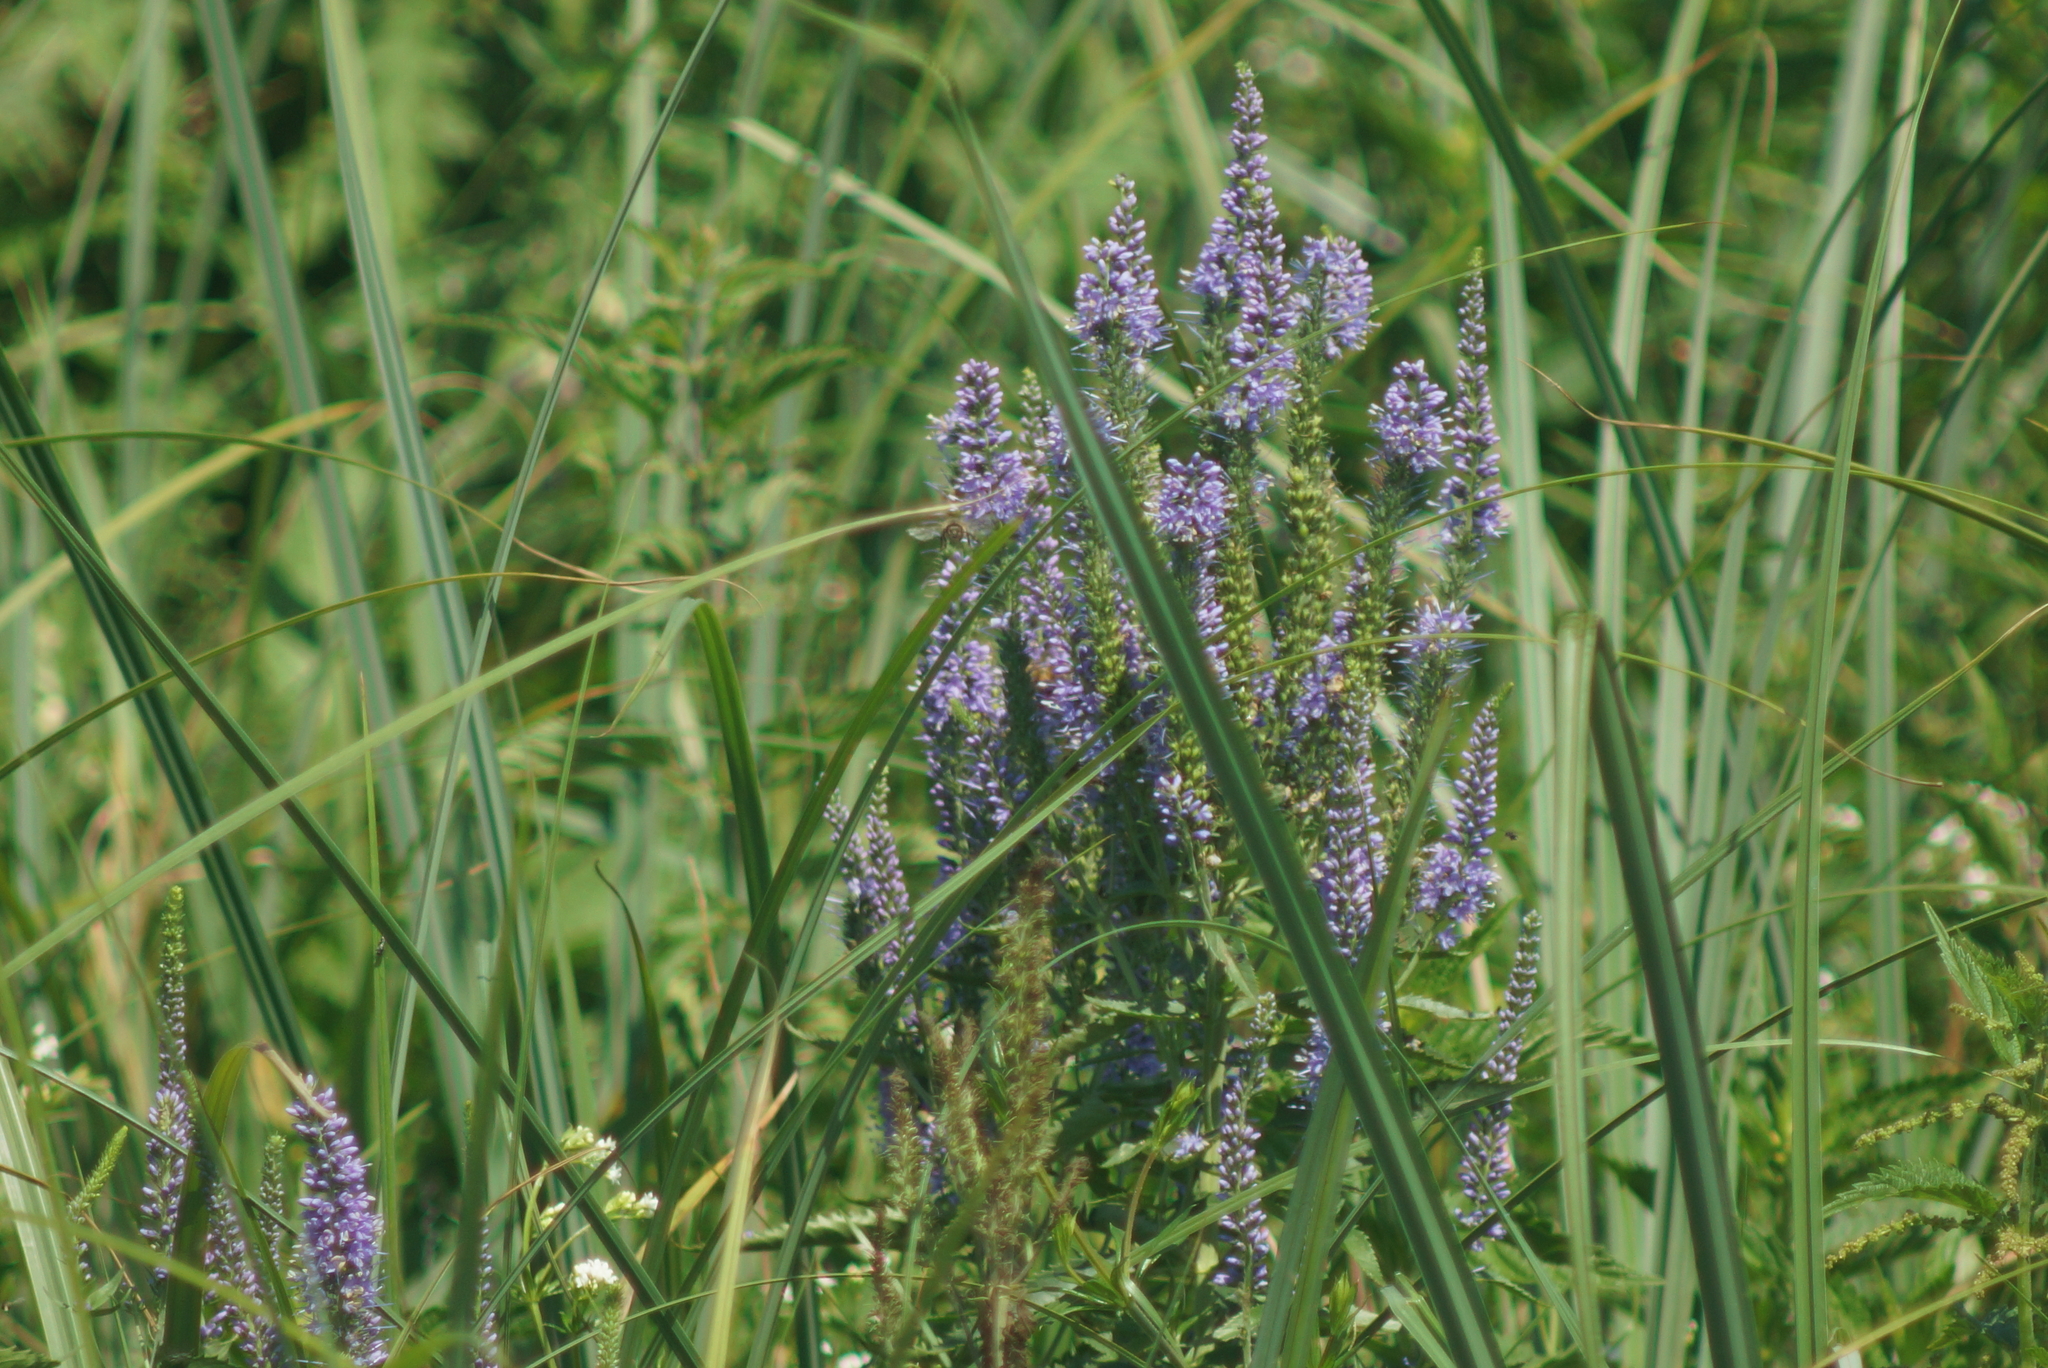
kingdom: Plantae
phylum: Tracheophyta
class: Magnoliopsida
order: Lamiales
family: Plantaginaceae
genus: Veronica
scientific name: Veronica longifolia
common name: Garden speedwell
